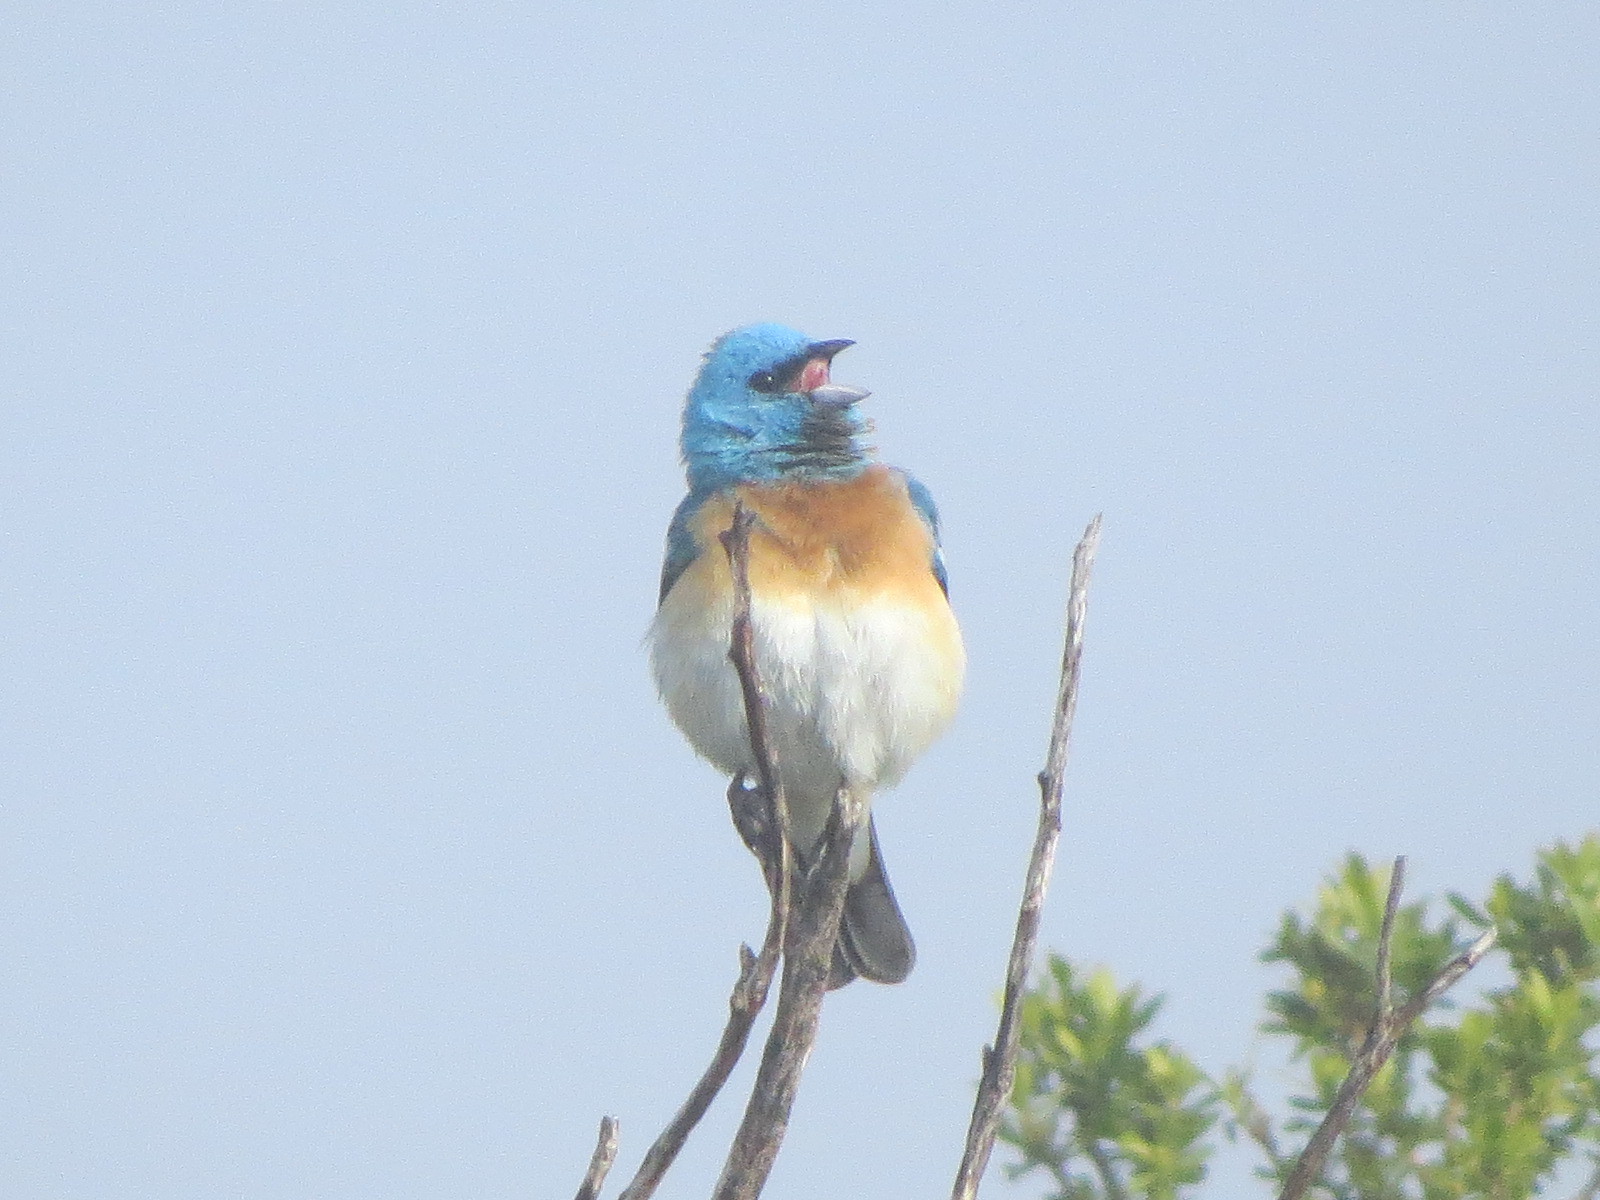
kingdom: Animalia
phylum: Chordata
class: Aves
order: Passeriformes
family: Cardinalidae
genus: Passerina
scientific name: Passerina amoena
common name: Lazuli bunting
